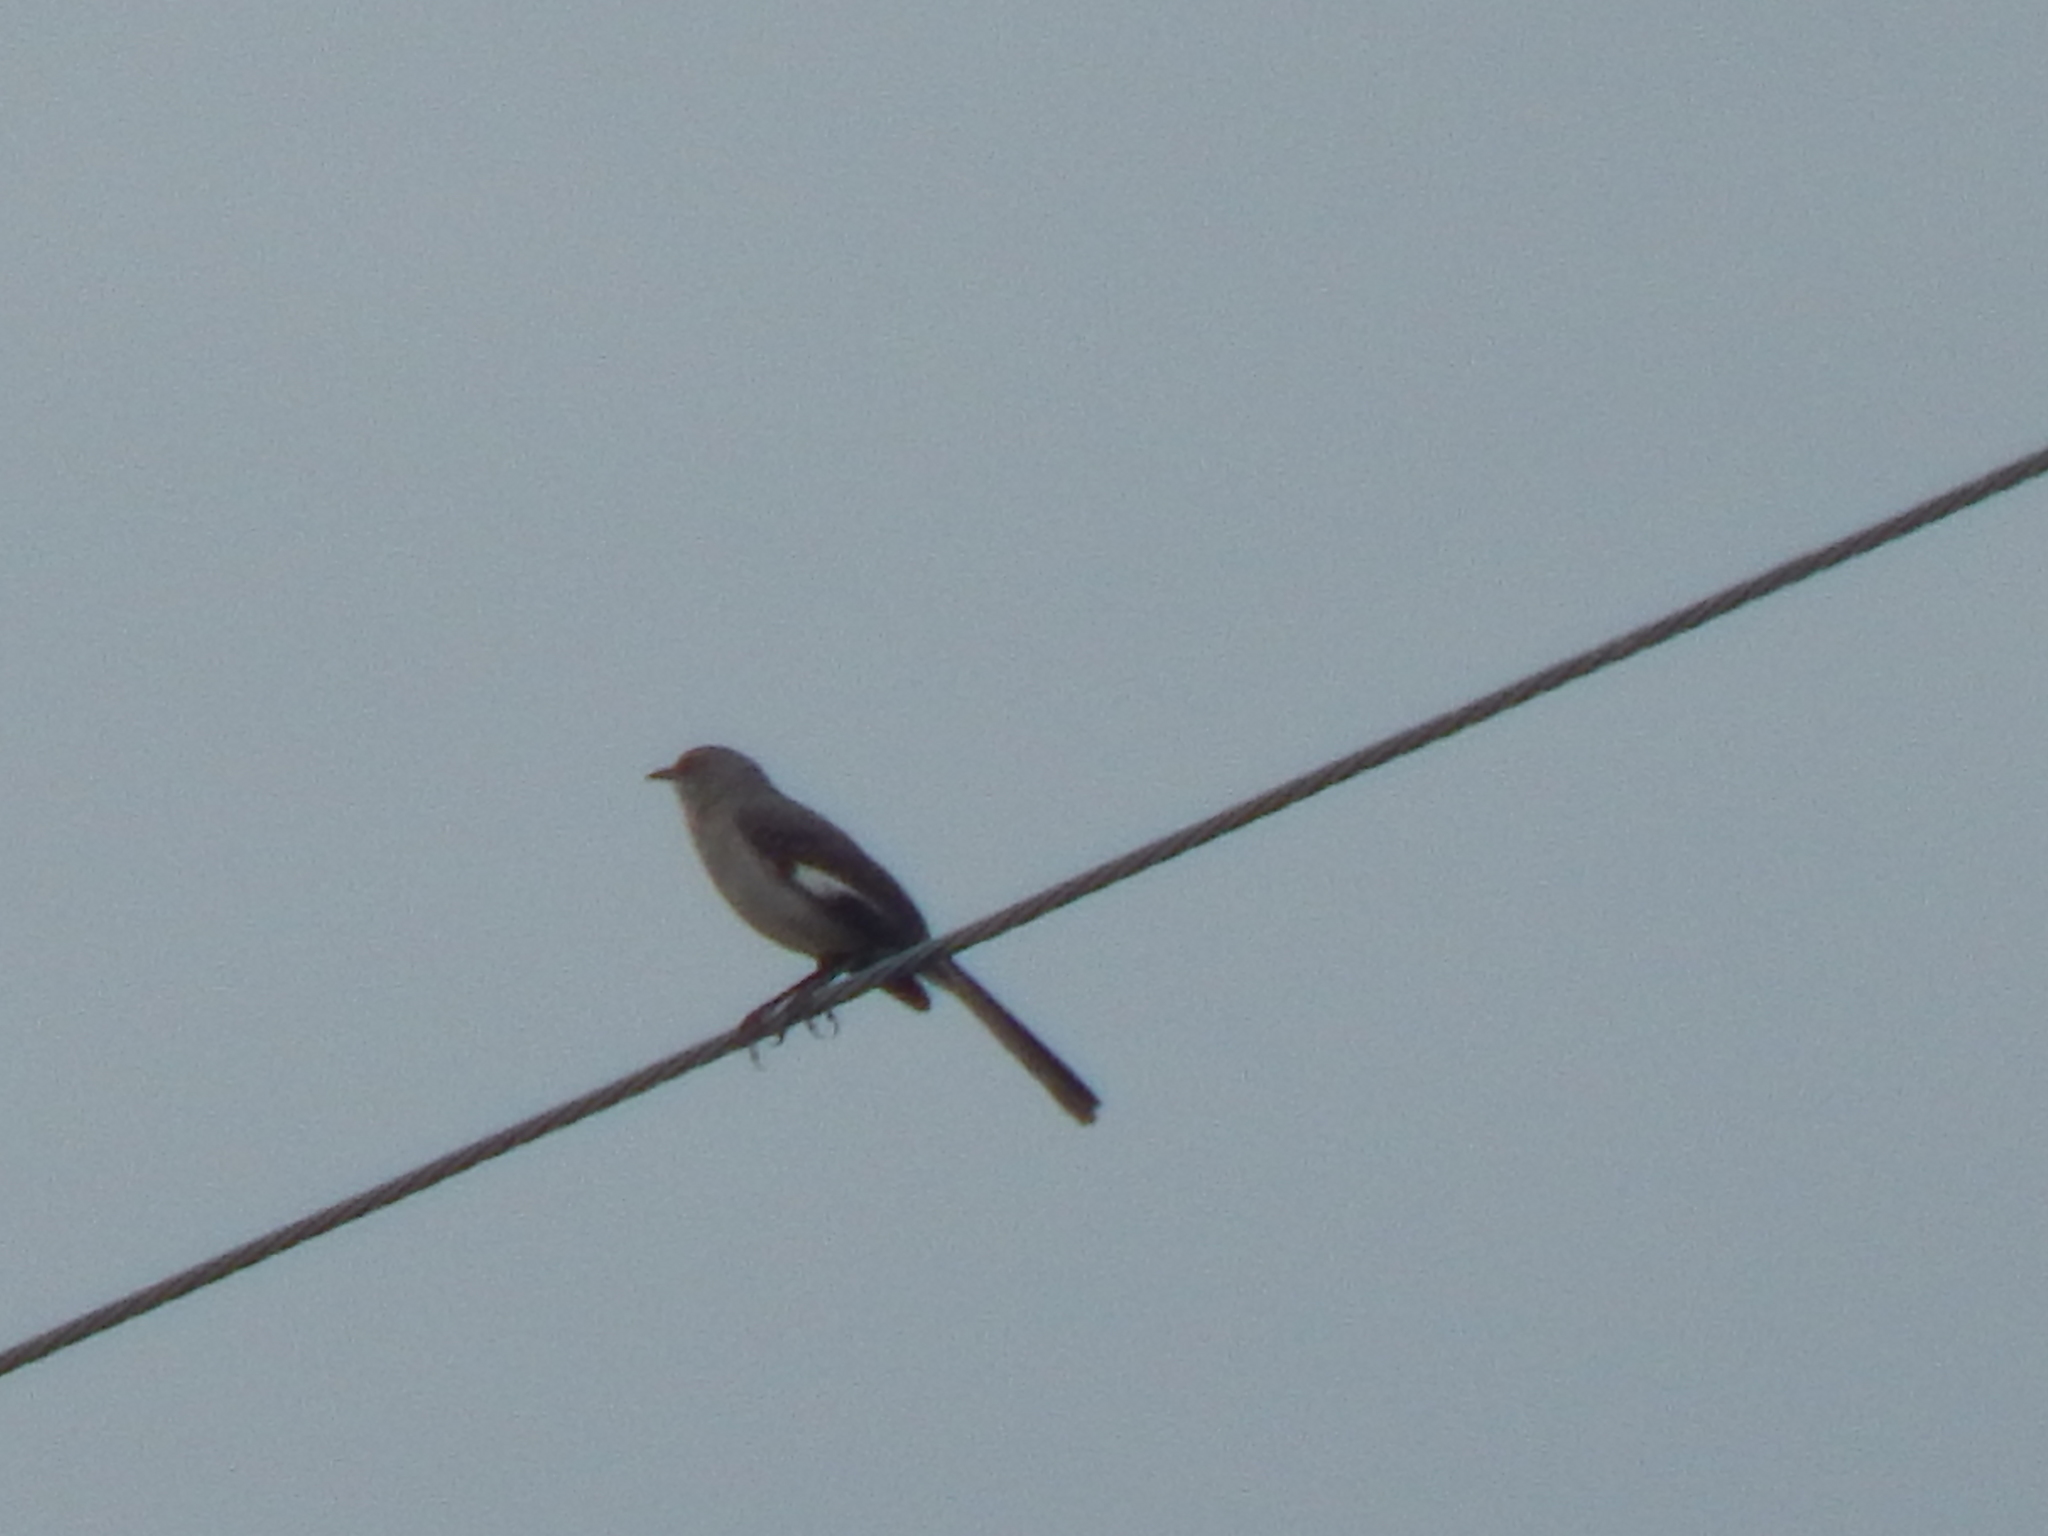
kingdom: Animalia
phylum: Chordata
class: Aves
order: Passeriformes
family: Mimidae
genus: Mimus
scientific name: Mimus polyglottos
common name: Northern mockingbird
